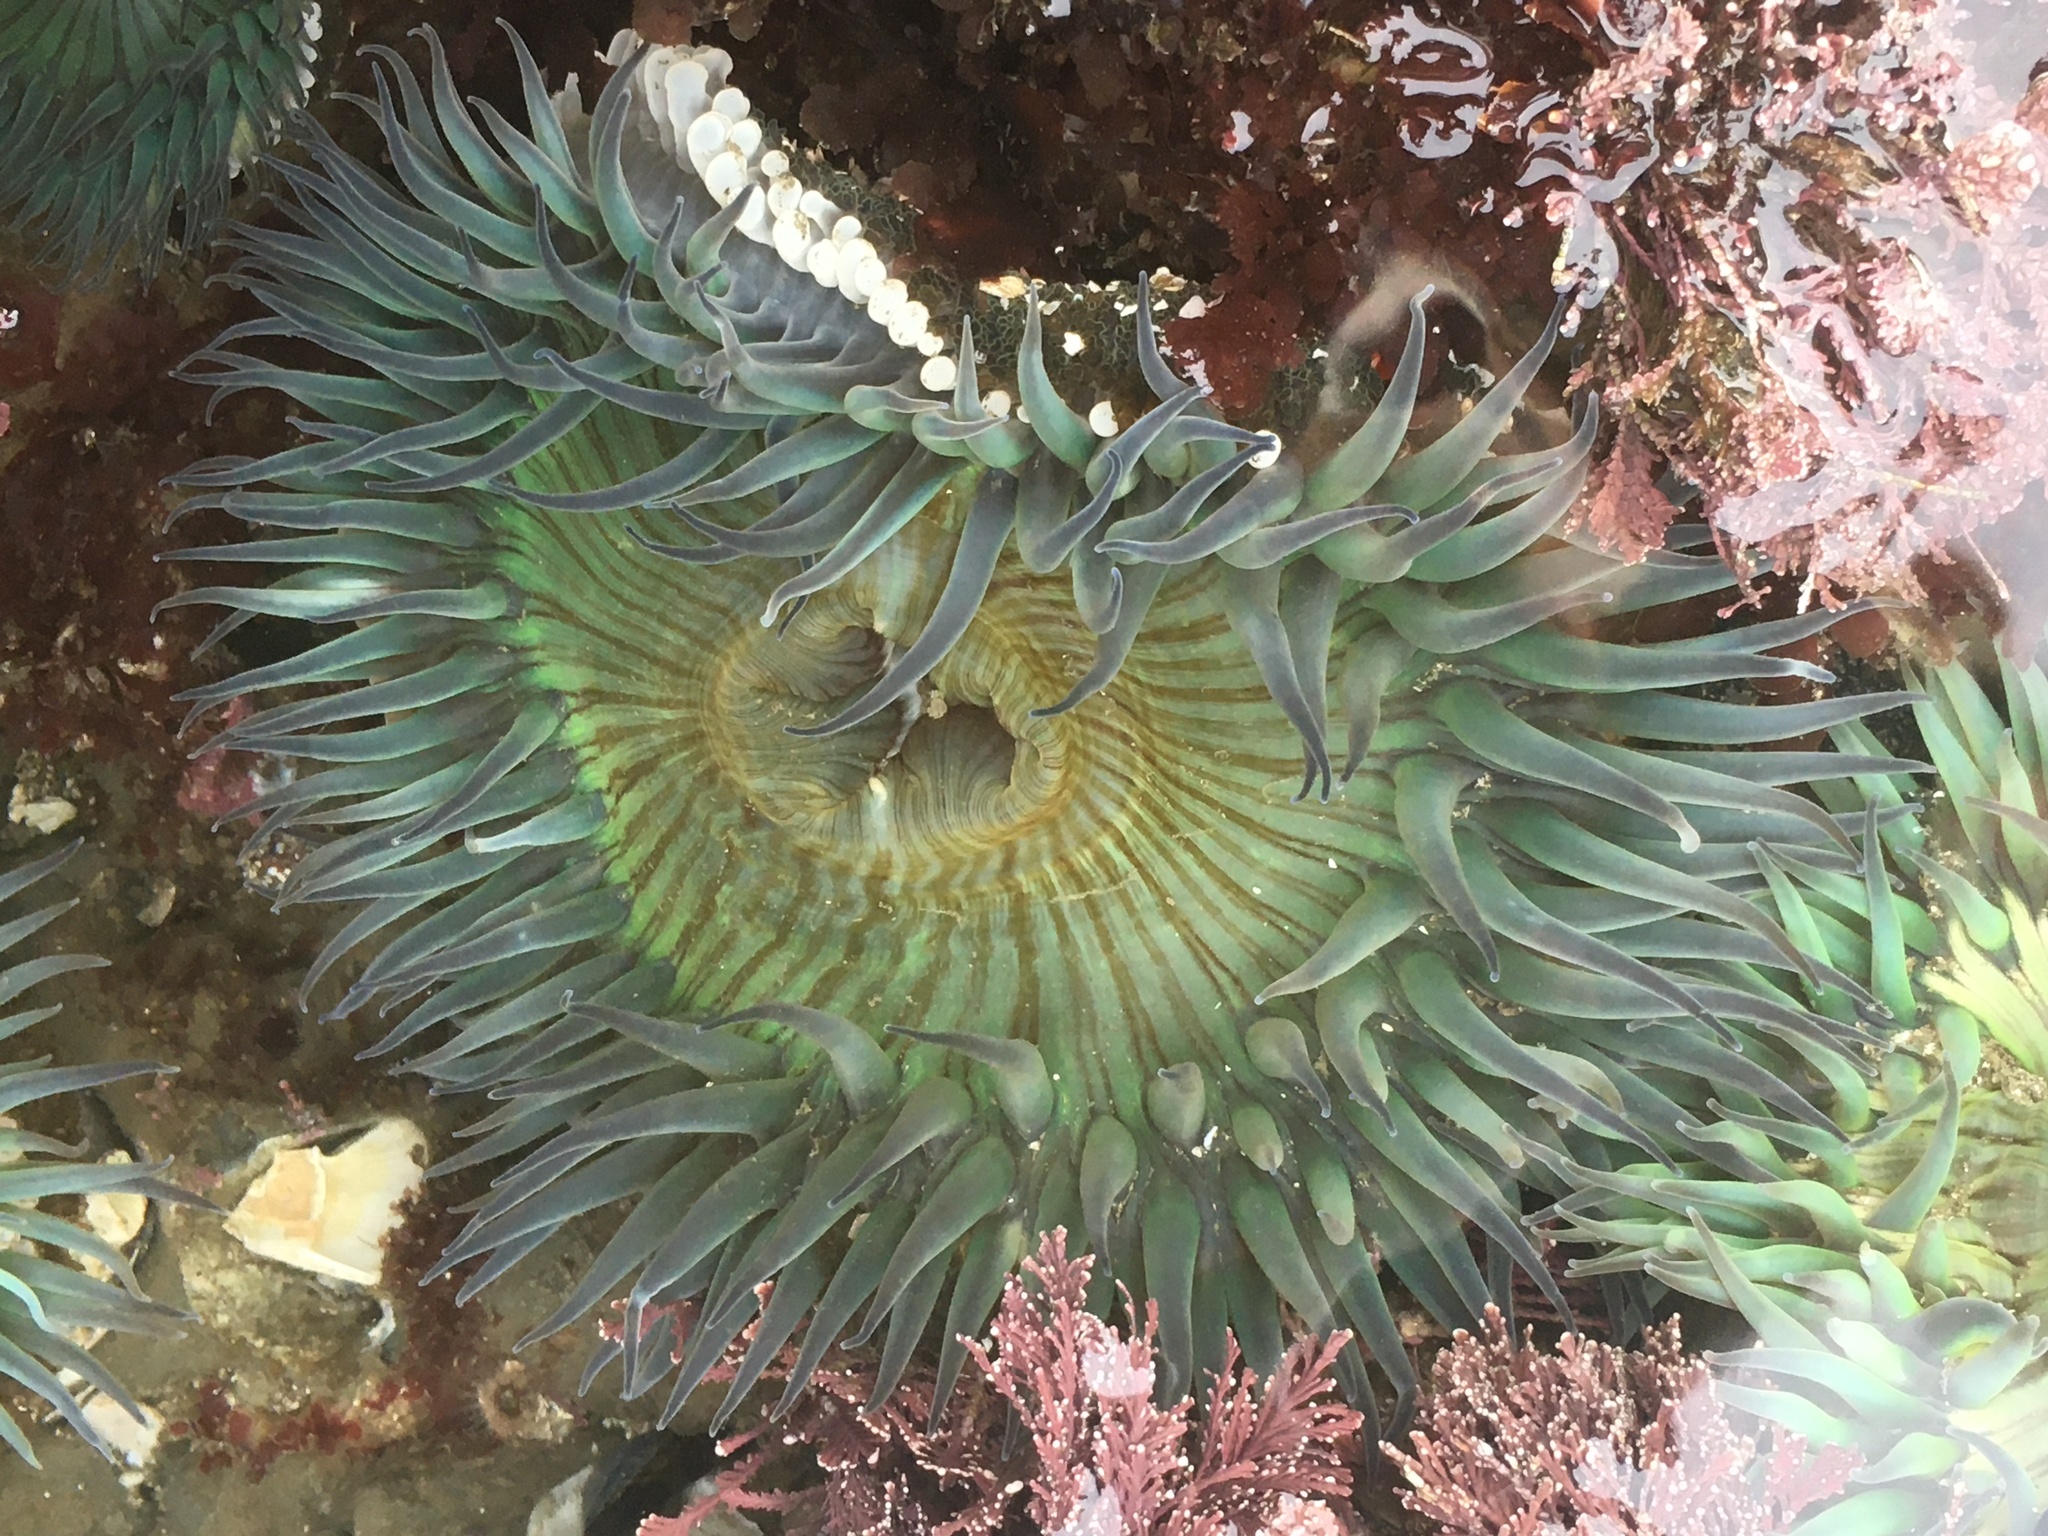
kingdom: Animalia
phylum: Cnidaria
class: Anthozoa
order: Actiniaria
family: Actiniidae
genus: Anthopleura
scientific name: Anthopleura sola
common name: Sun anemone
